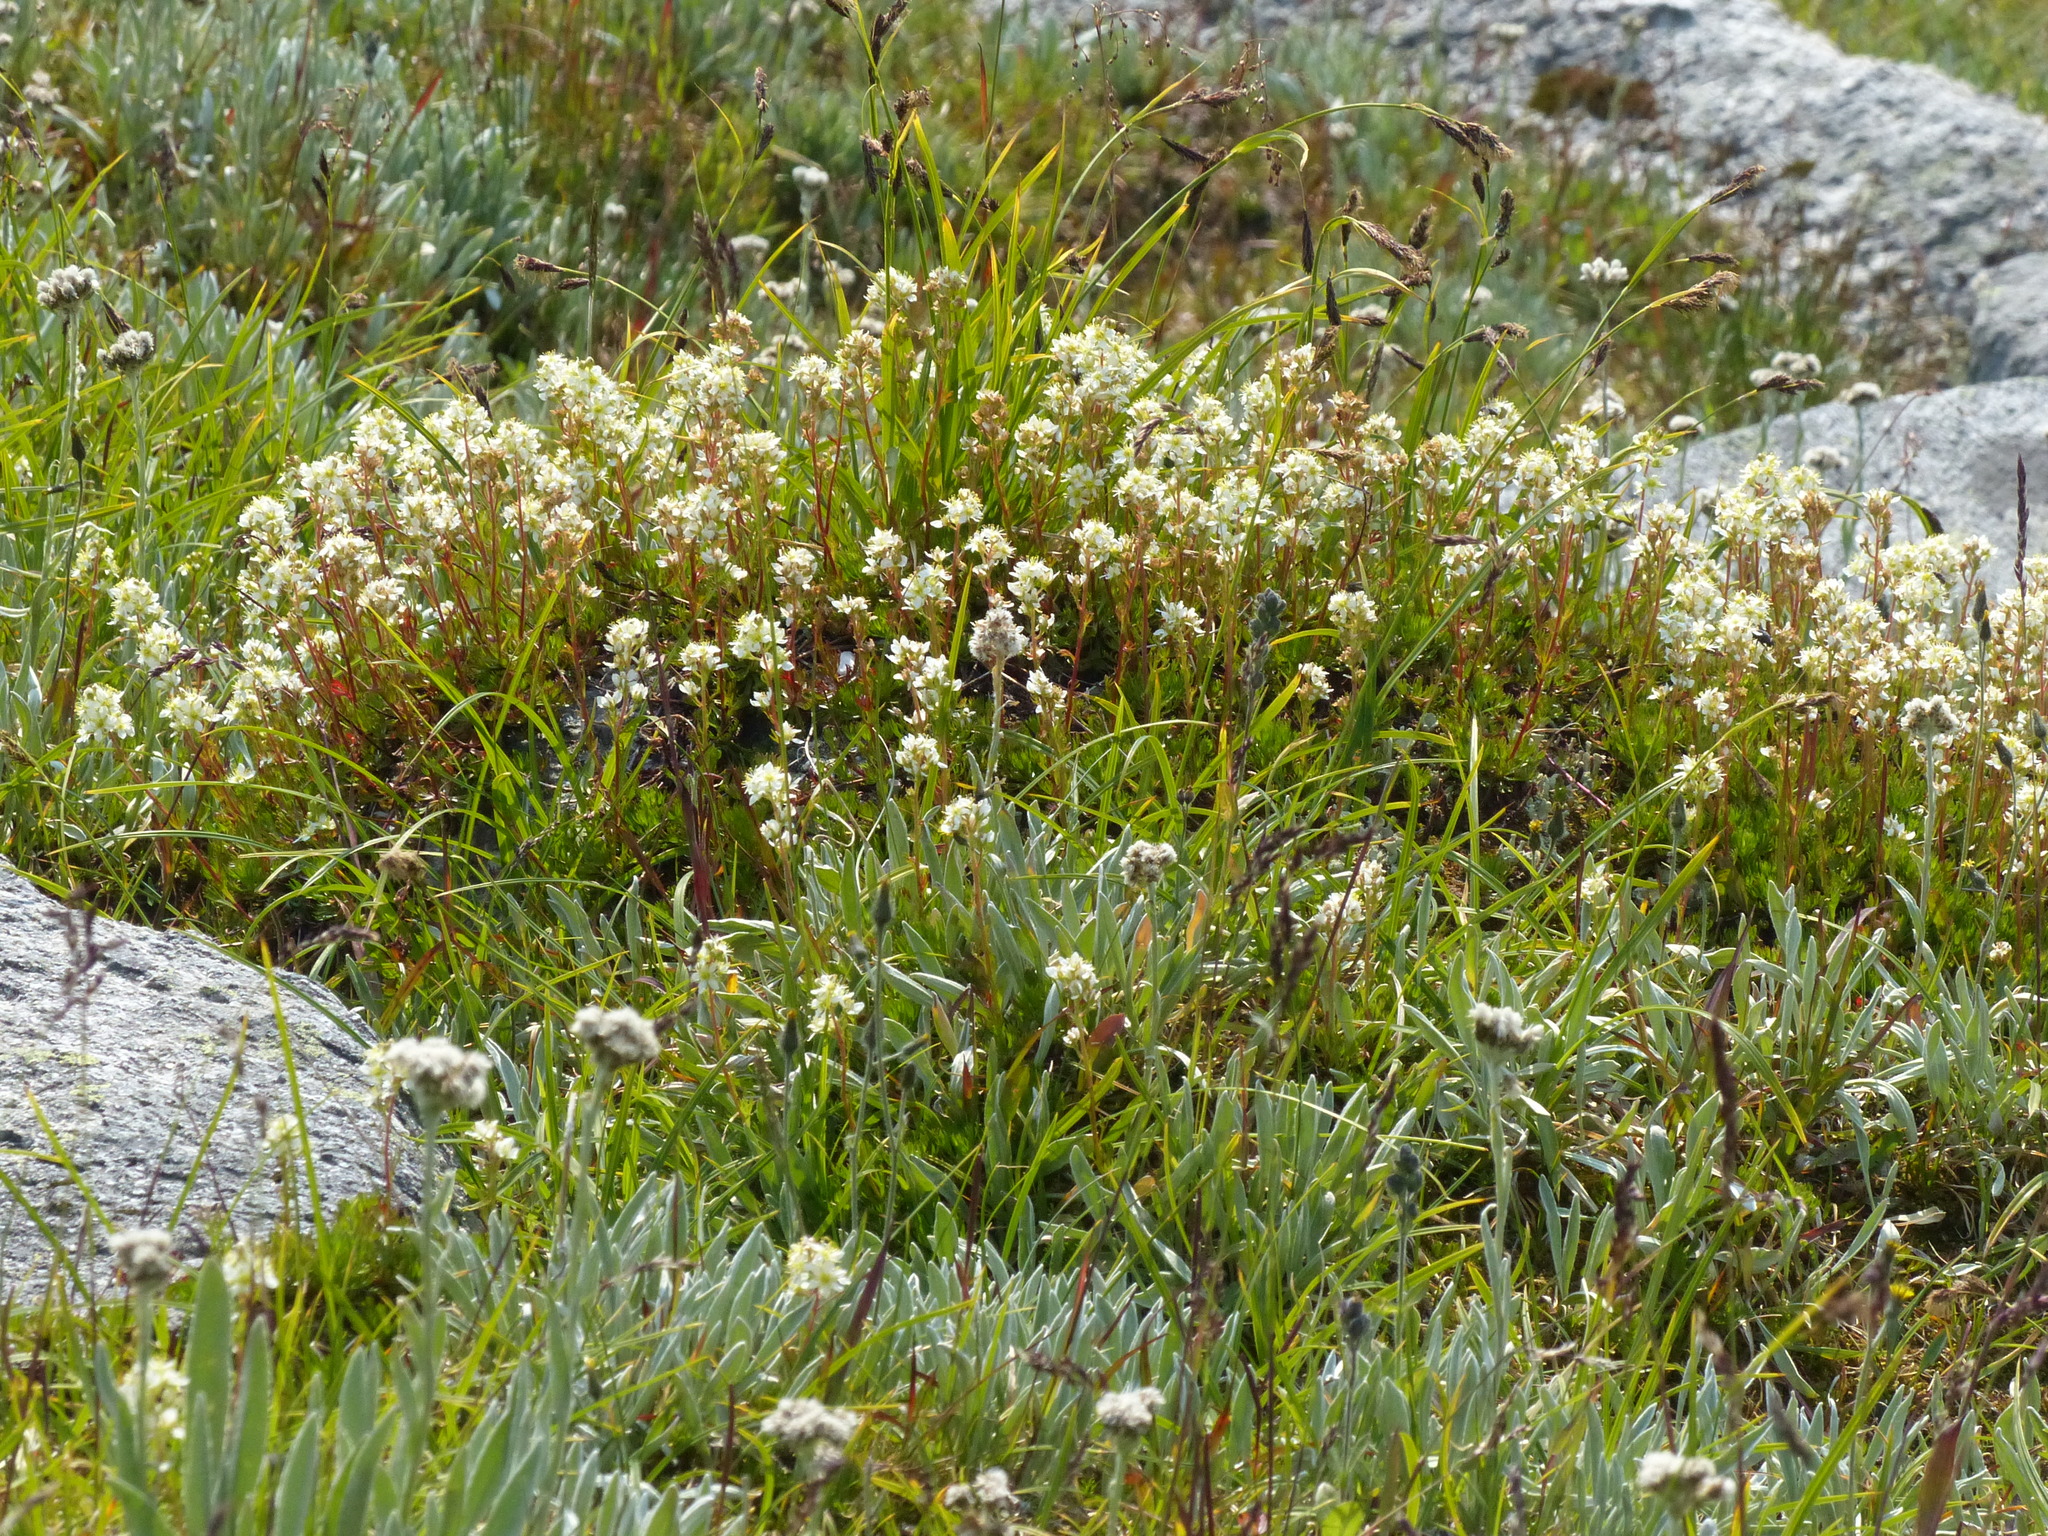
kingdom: Plantae
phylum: Tracheophyta
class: Magnoliopsida
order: Rosales
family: Rosaceae
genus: Luetkea
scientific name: Luetkea pectinata
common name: Partridgefoot
